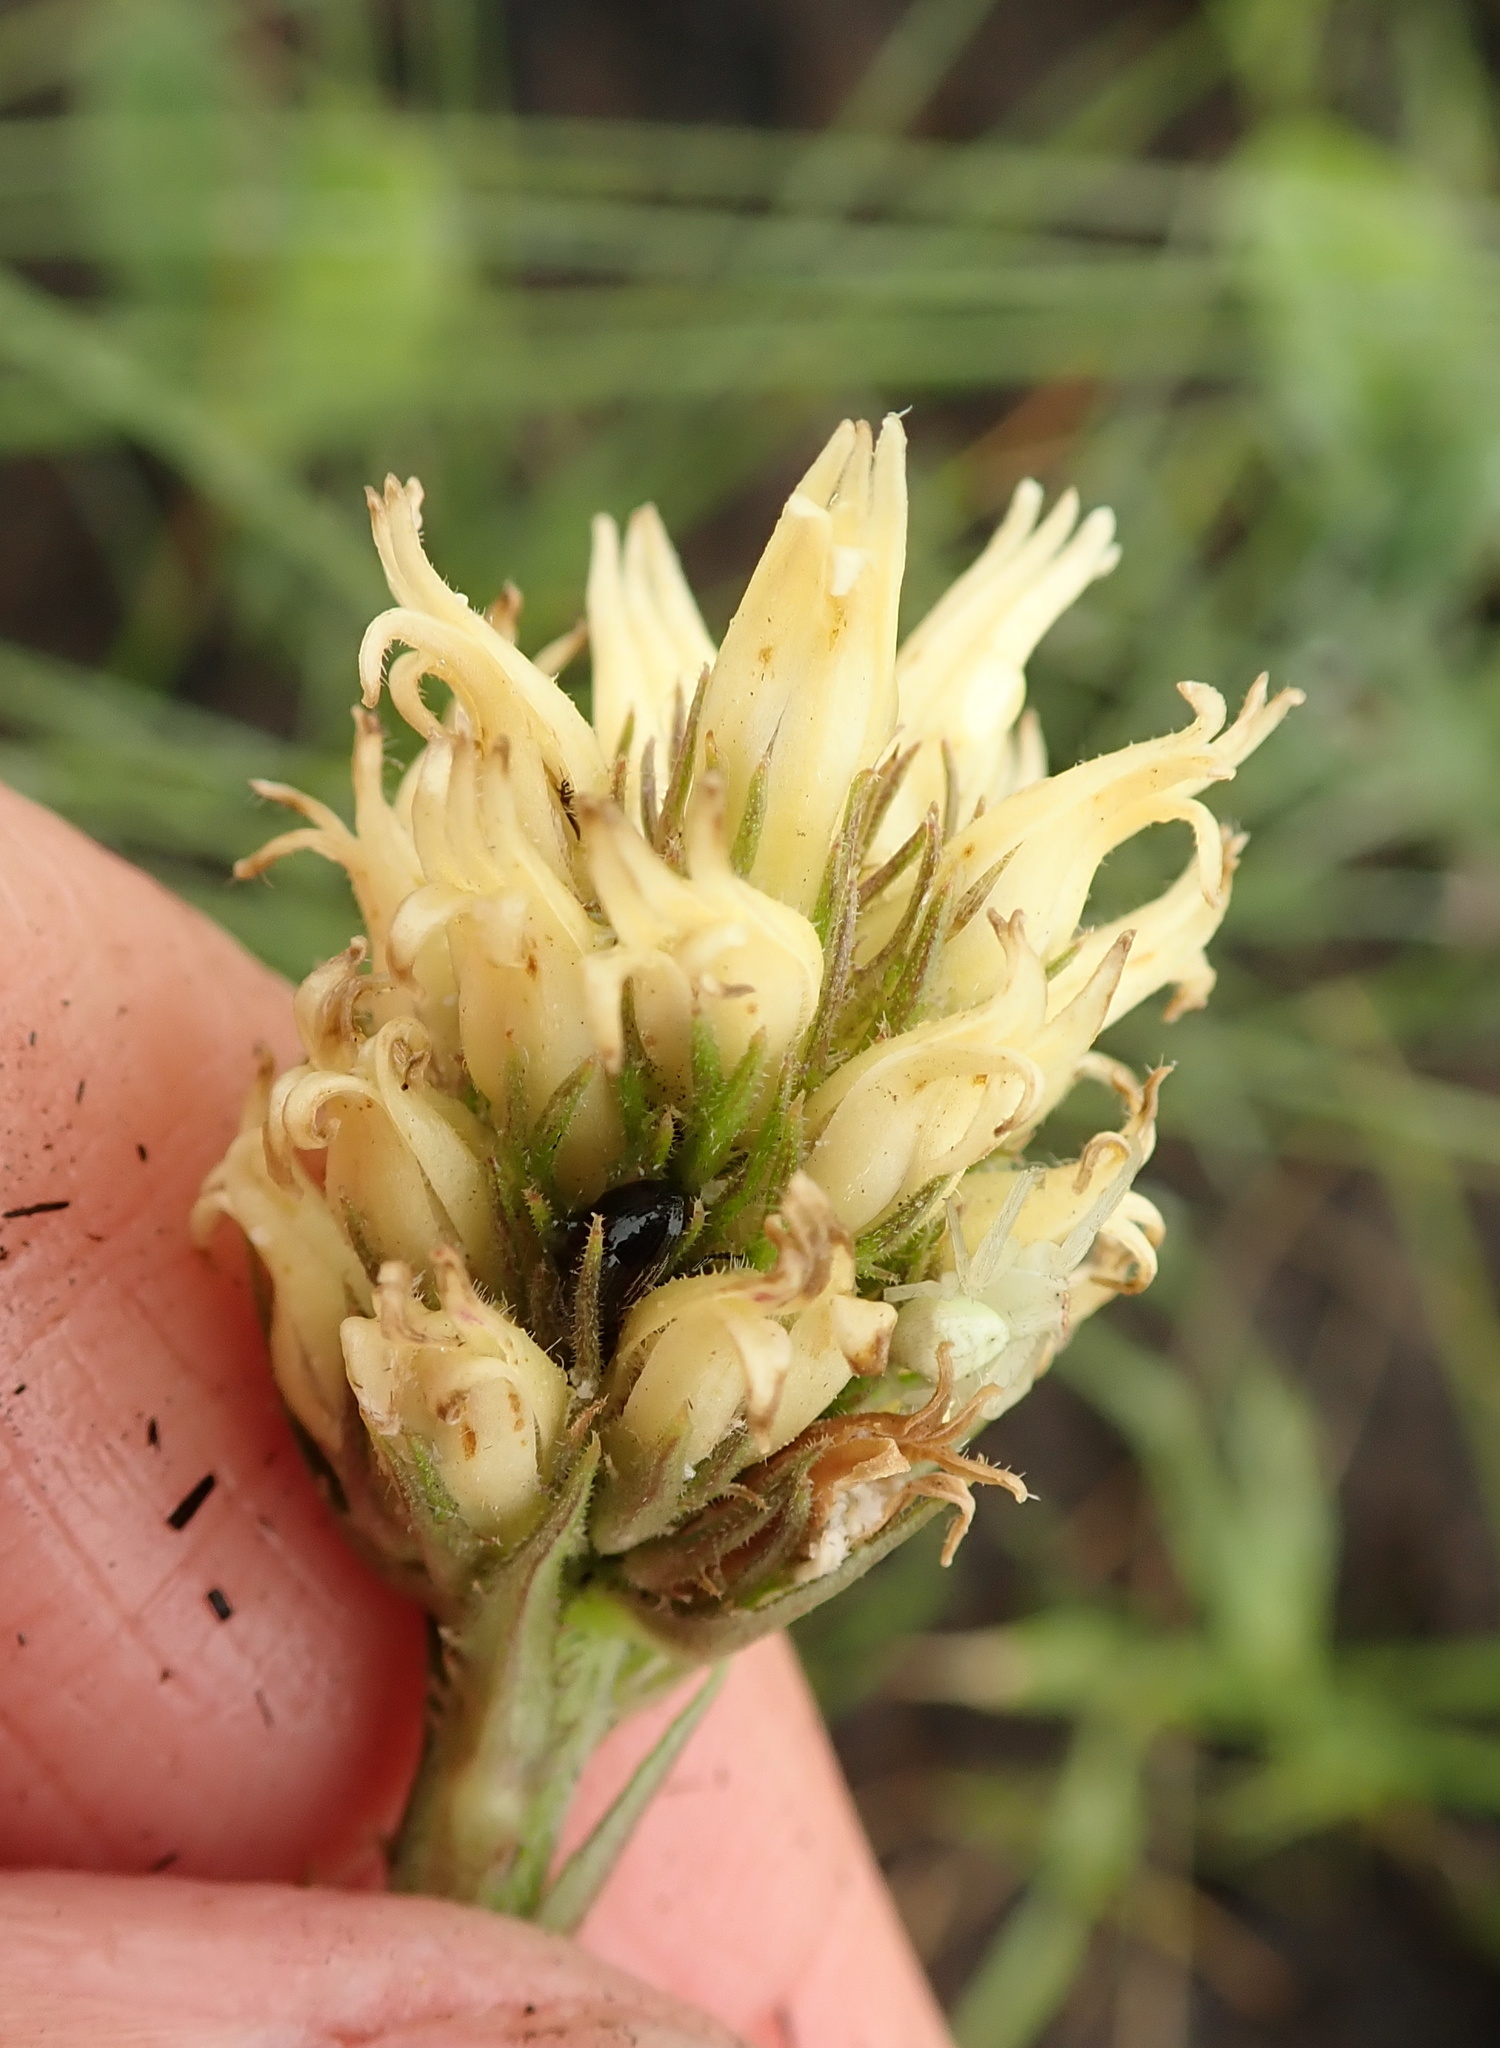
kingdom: Plantae
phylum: Tracheophyta
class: Magnoliopsida
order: Asterales
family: Campanulaceae
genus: Cyphia
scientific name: Cyphia elata
